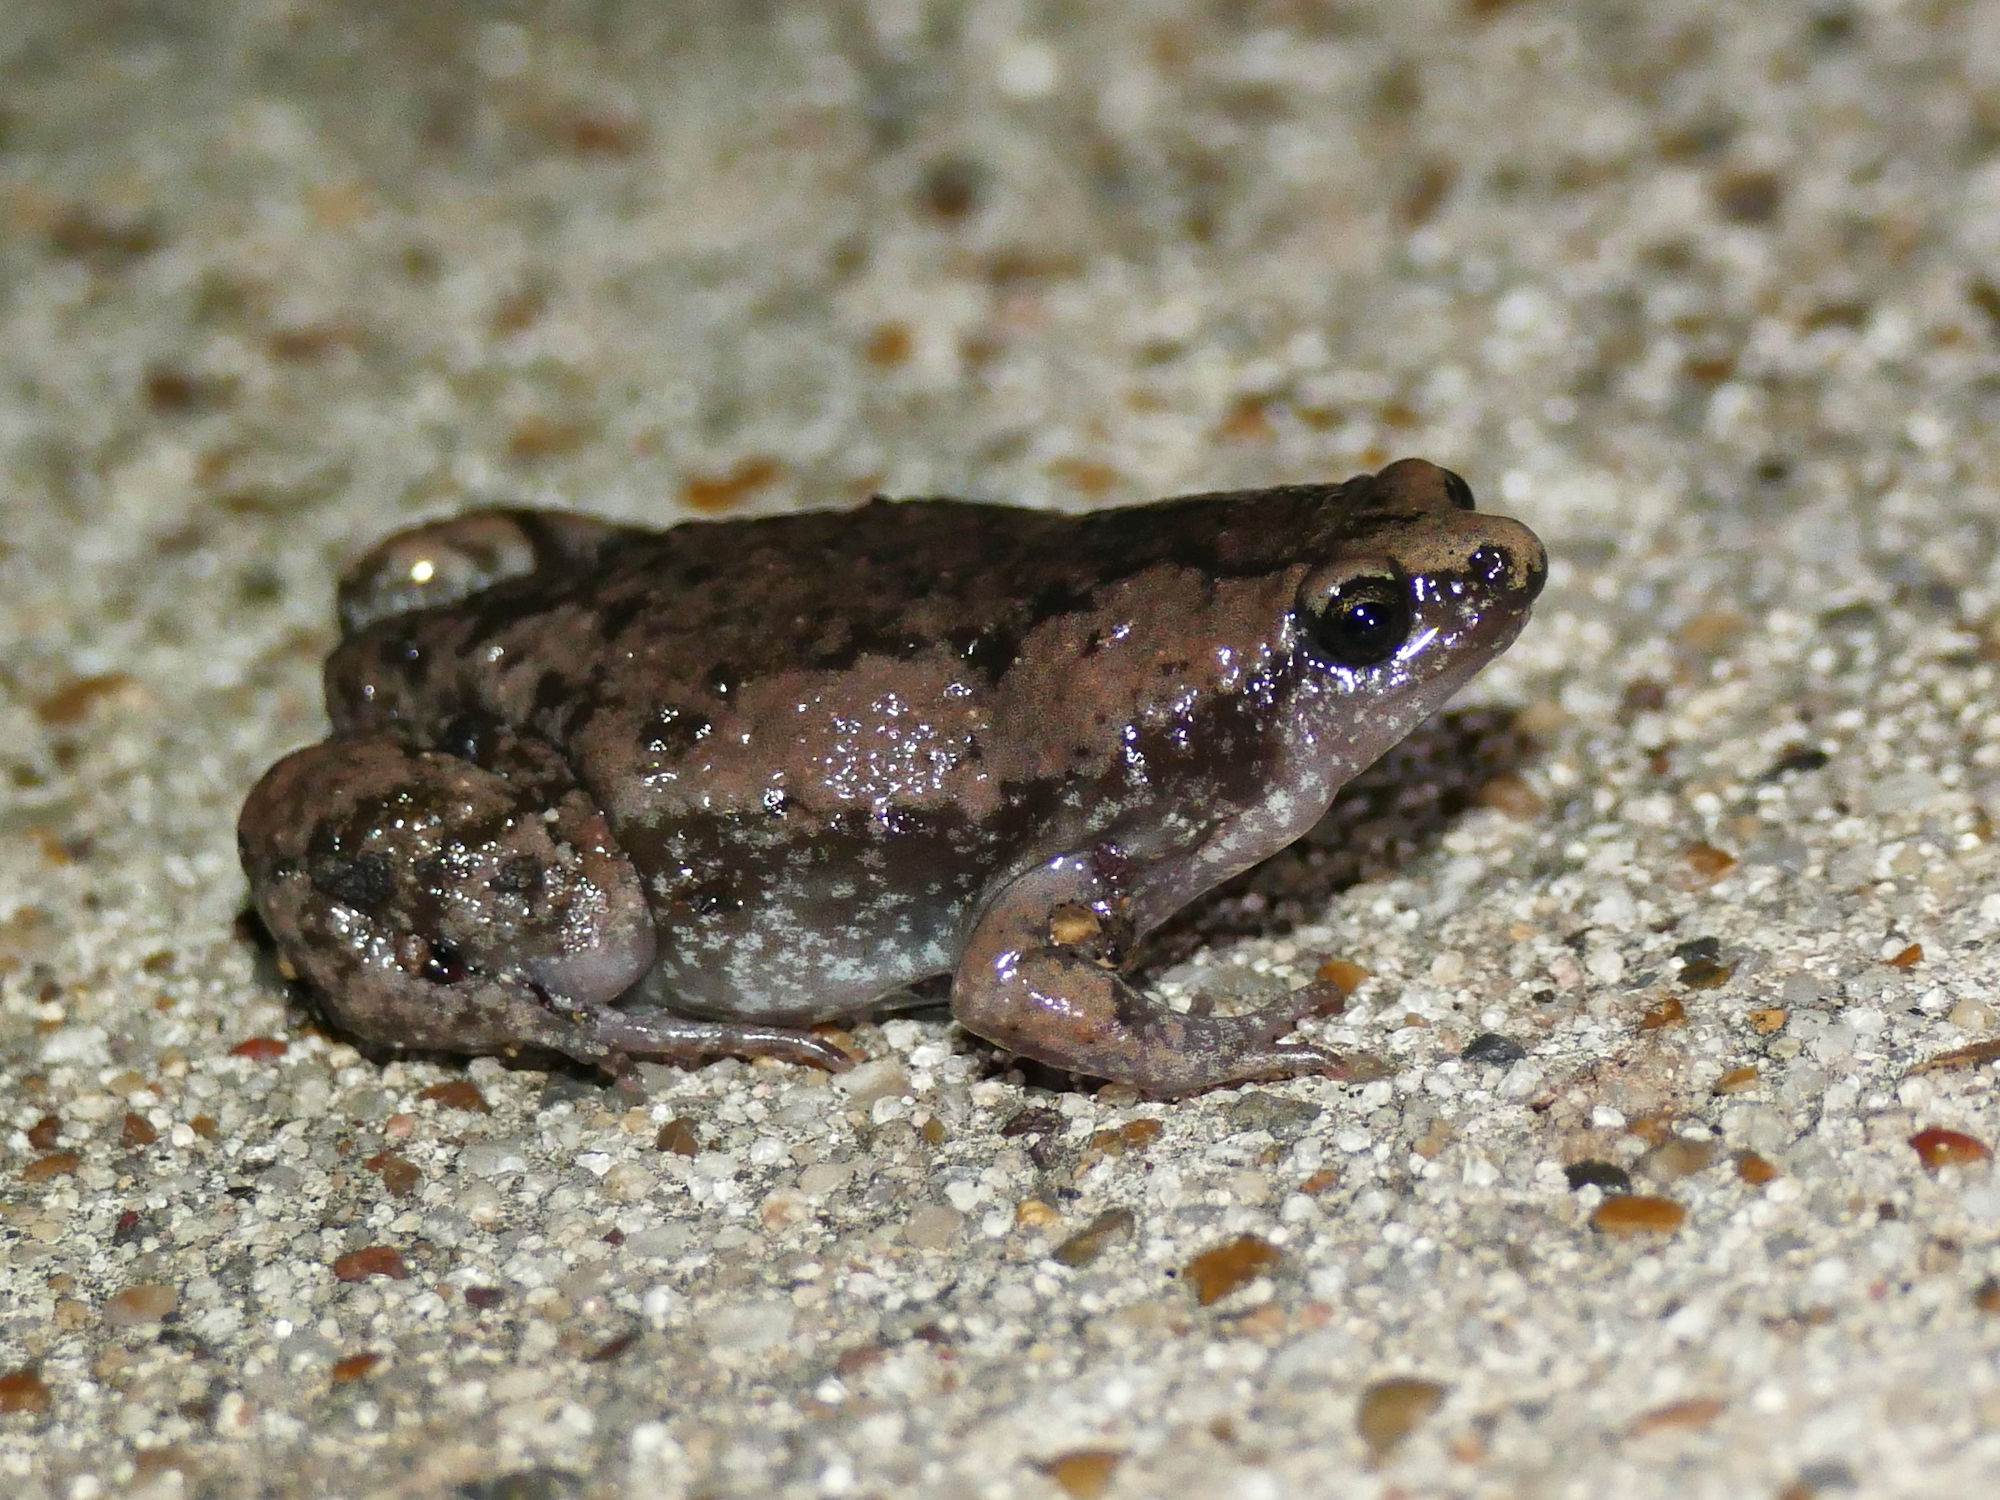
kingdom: Animalia
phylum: Chordata
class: Amphibia
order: Anura
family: Microhylidae
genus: Gastrophryne
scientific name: Gastrophryne carolinensis
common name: Eastern narrowmouth toad
